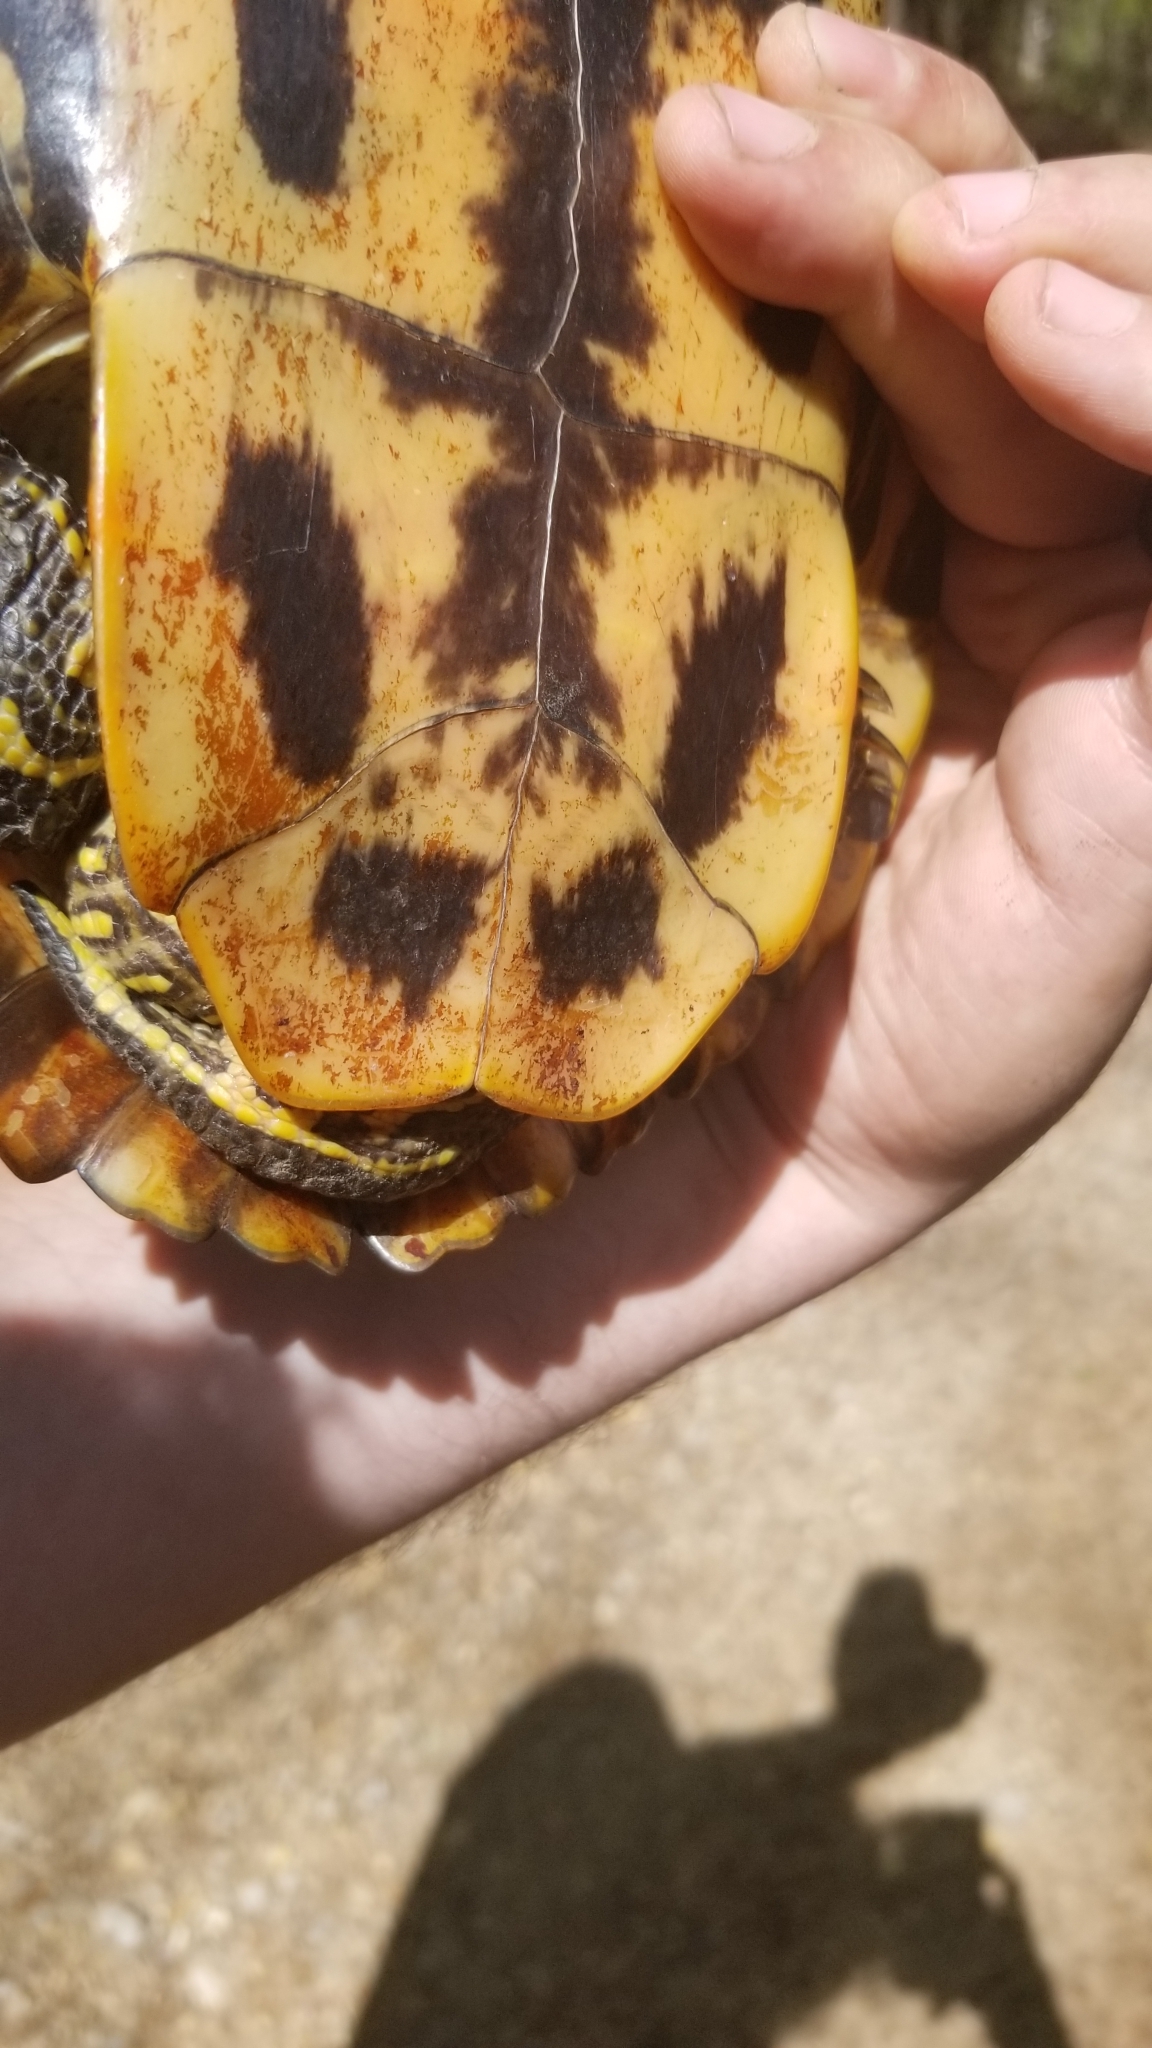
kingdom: Animalia
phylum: Chordata
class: Testudines
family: Emydidae
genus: Trachemys
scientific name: Trachemys scripta
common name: Slider
